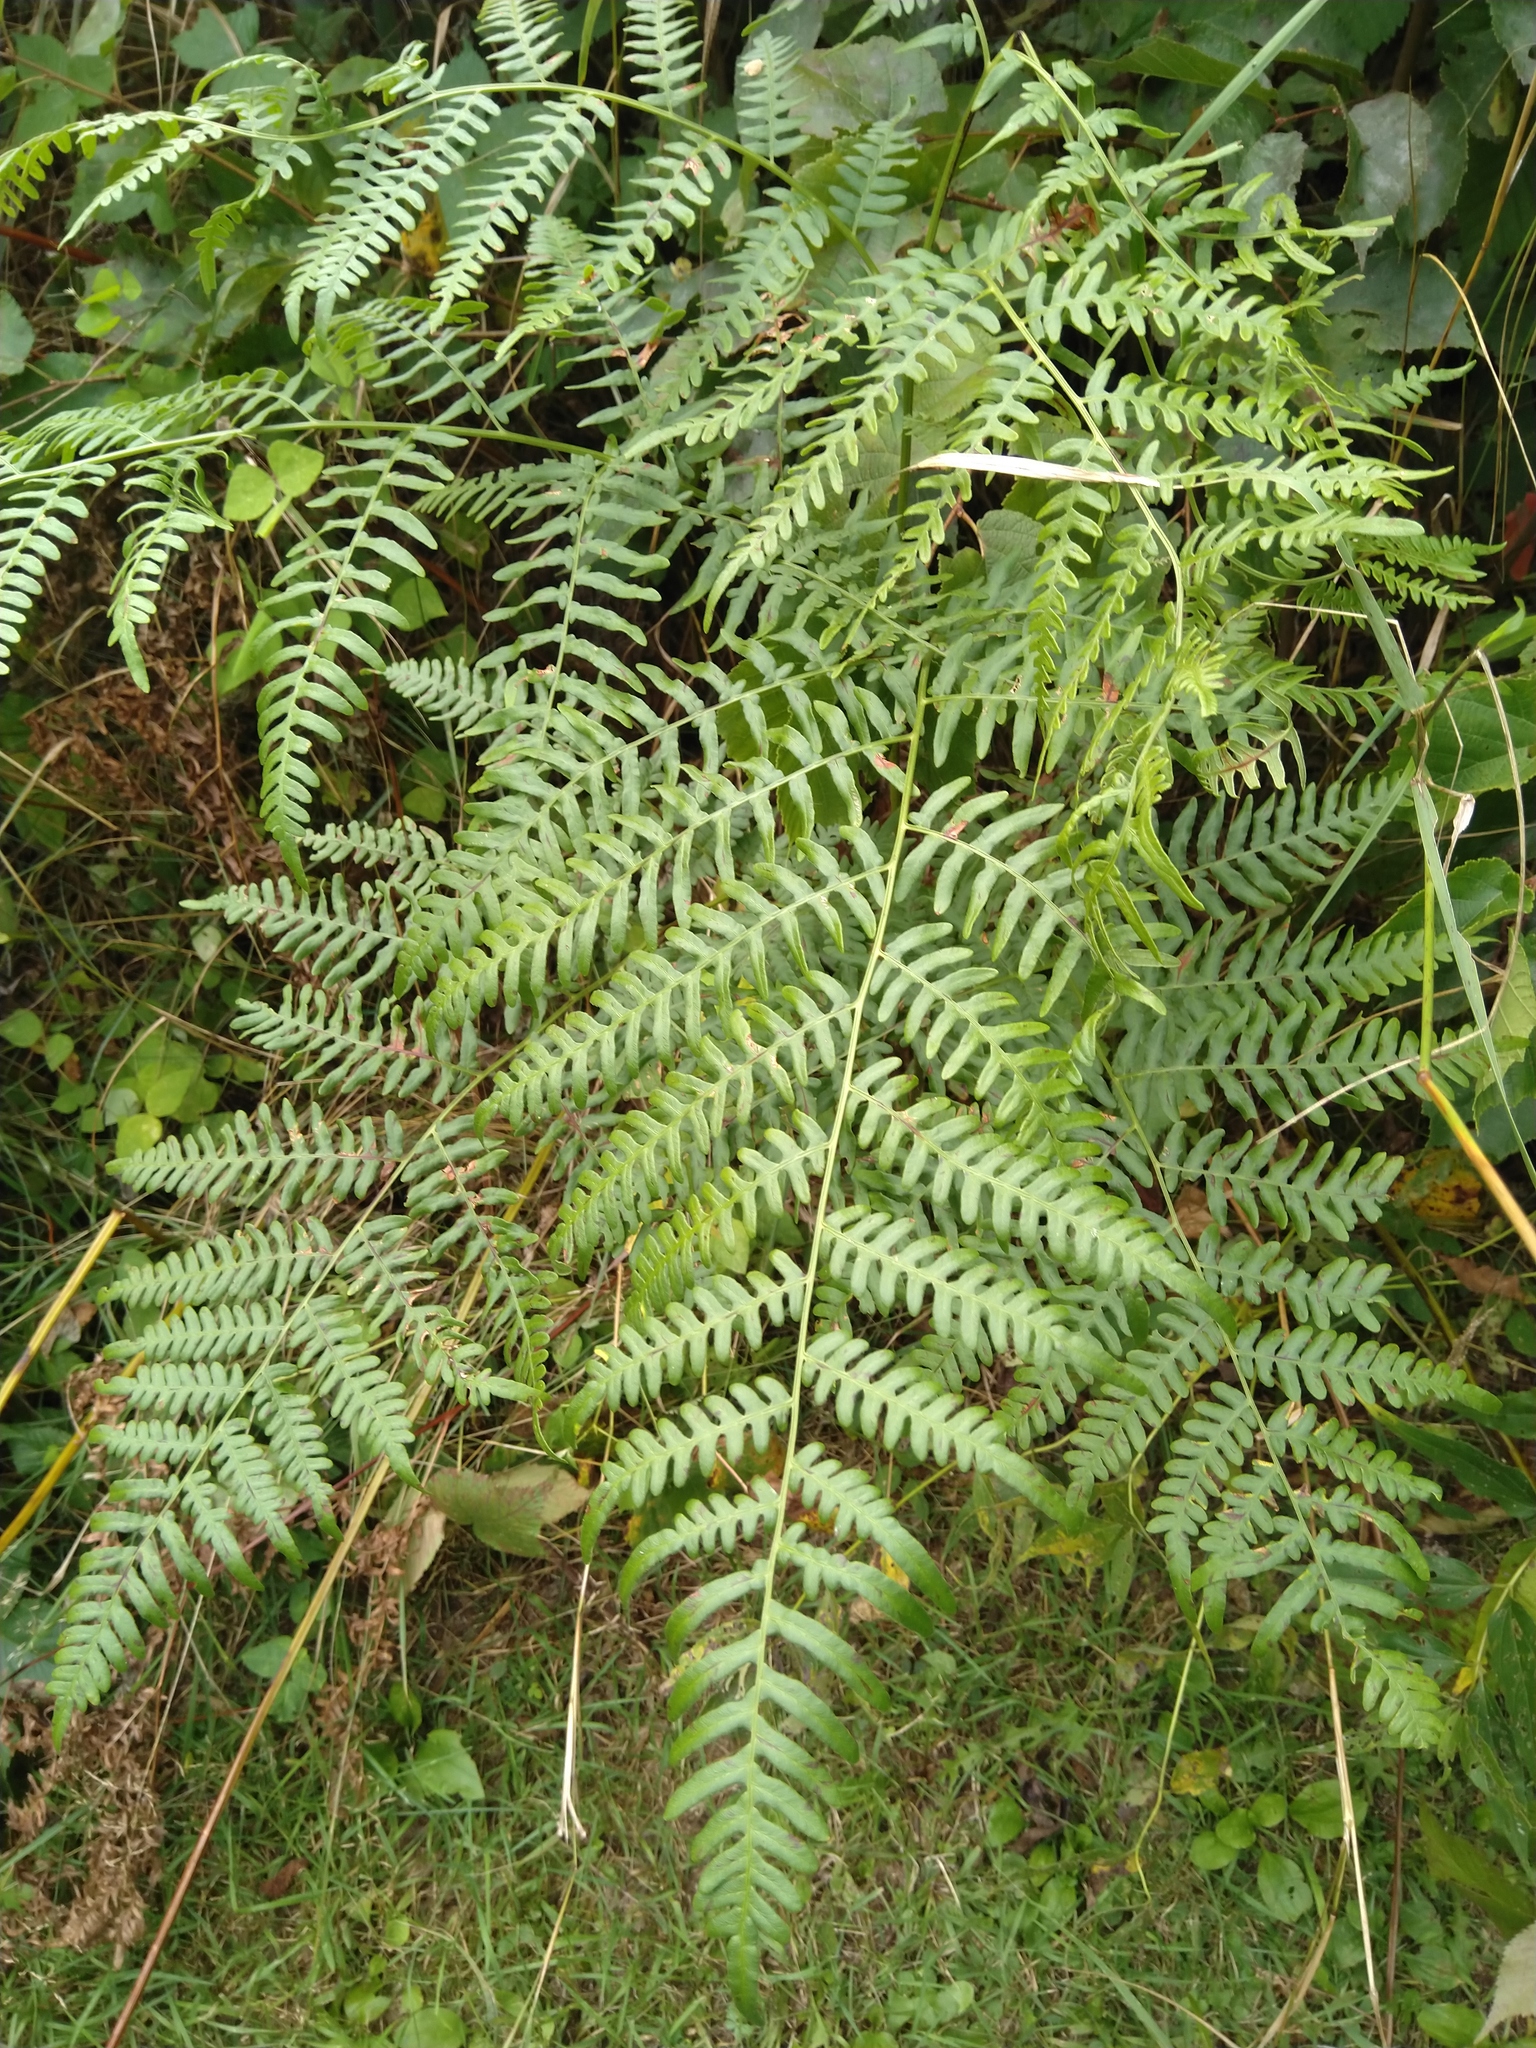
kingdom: Plantae
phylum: Tracheophyta
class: Polypodiopsida
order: Polypodiales
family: Dennstaedtiaceae
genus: Pteridium
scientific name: Pteridium aquilinum
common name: Bracken
